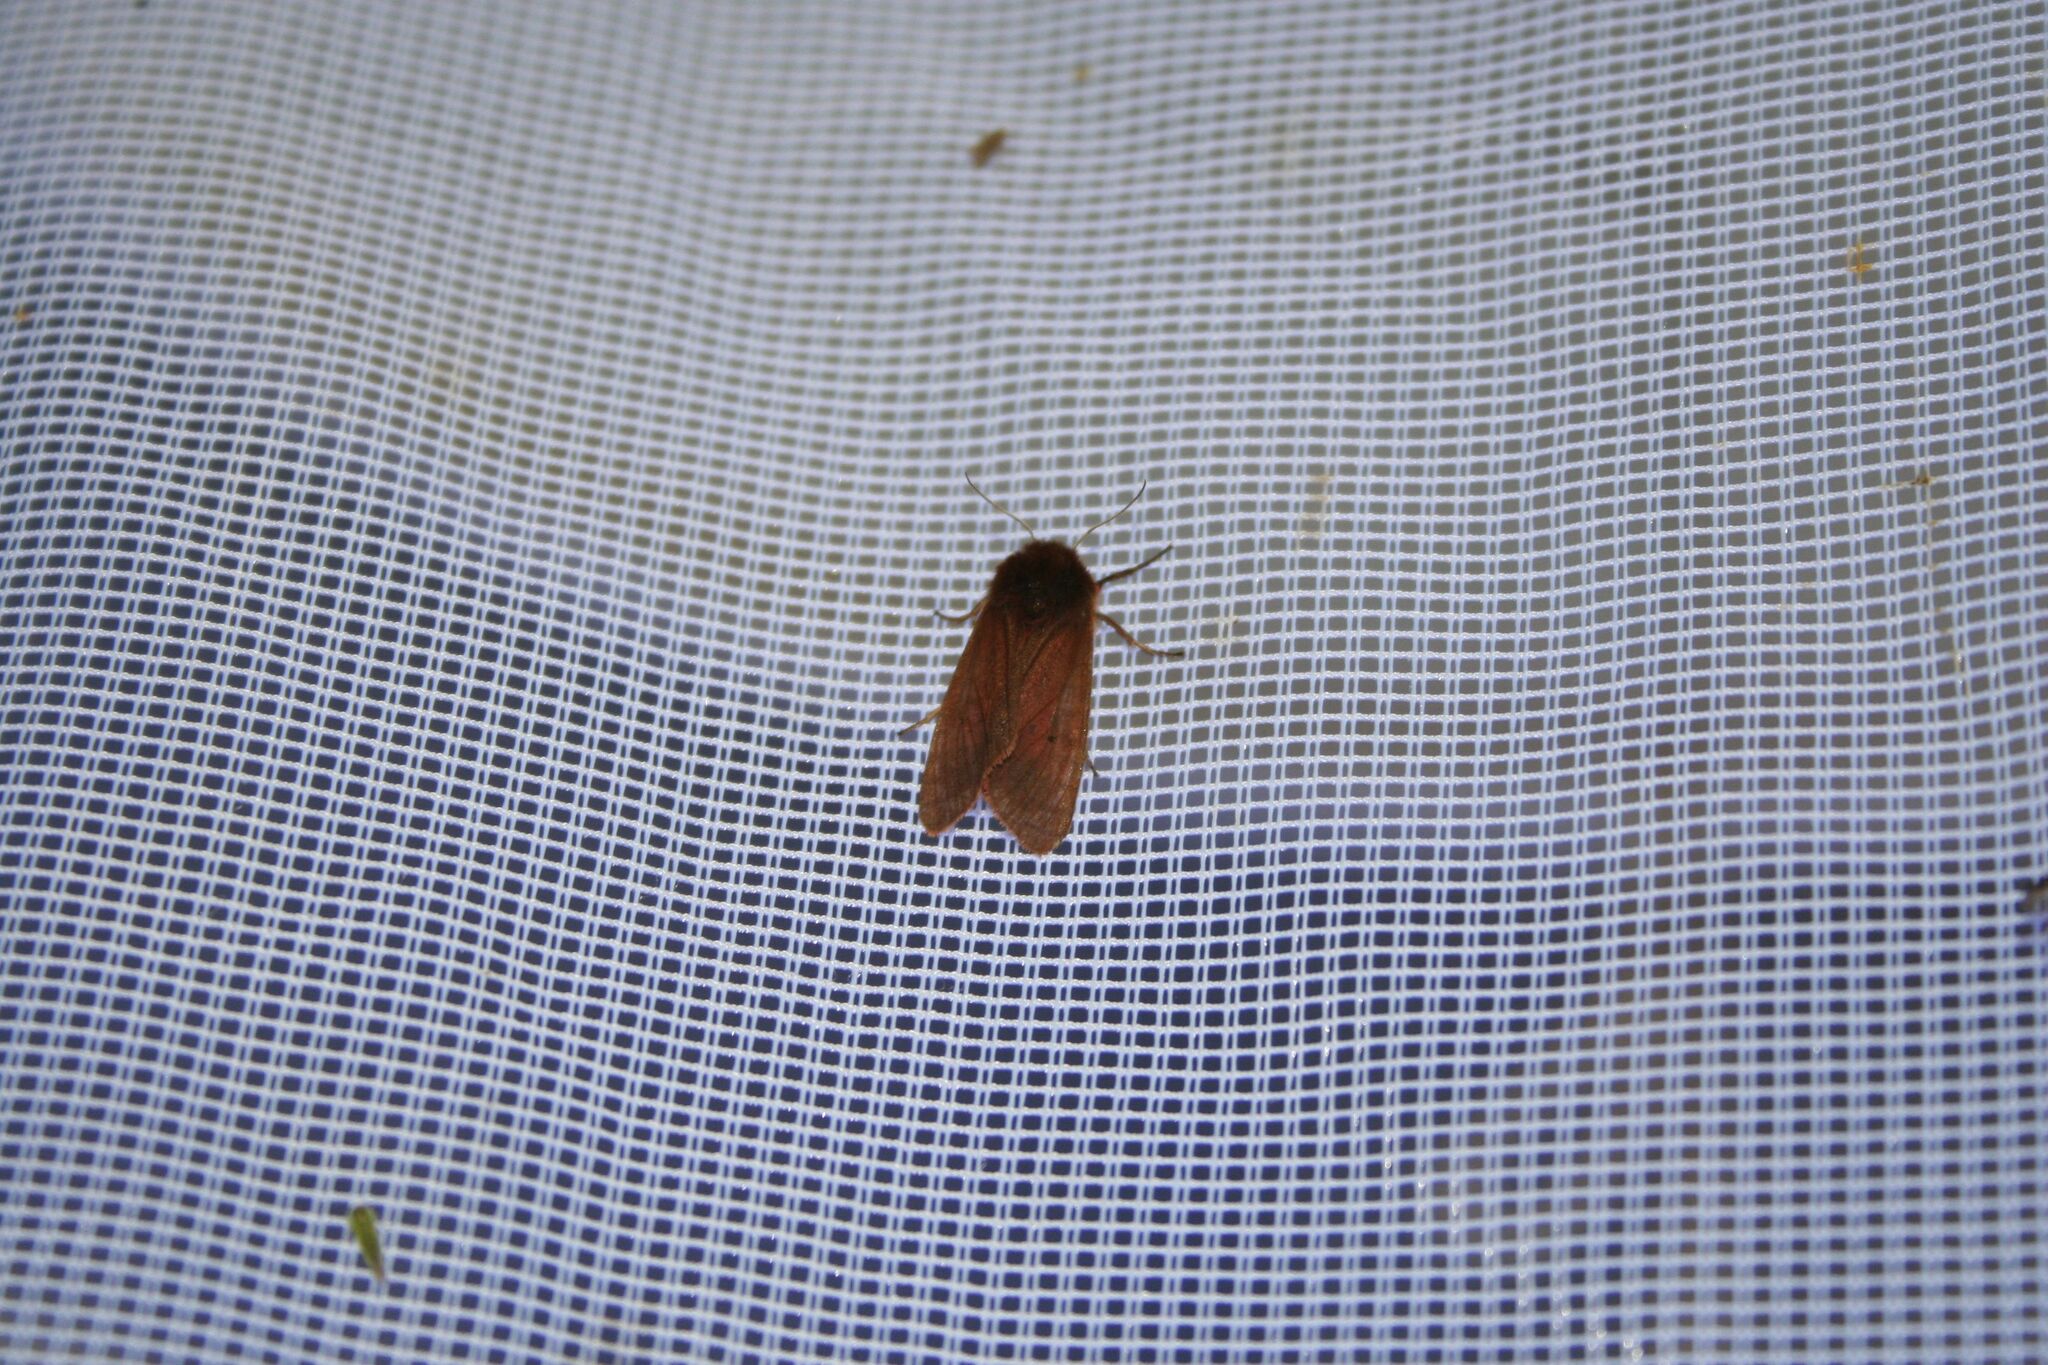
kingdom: Animalia
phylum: Arthropoda
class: Insecta
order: Lepidoptera
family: Erebidae
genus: Phragmatobia
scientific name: Phragmatobia fuliginosa
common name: Ruby tiger
